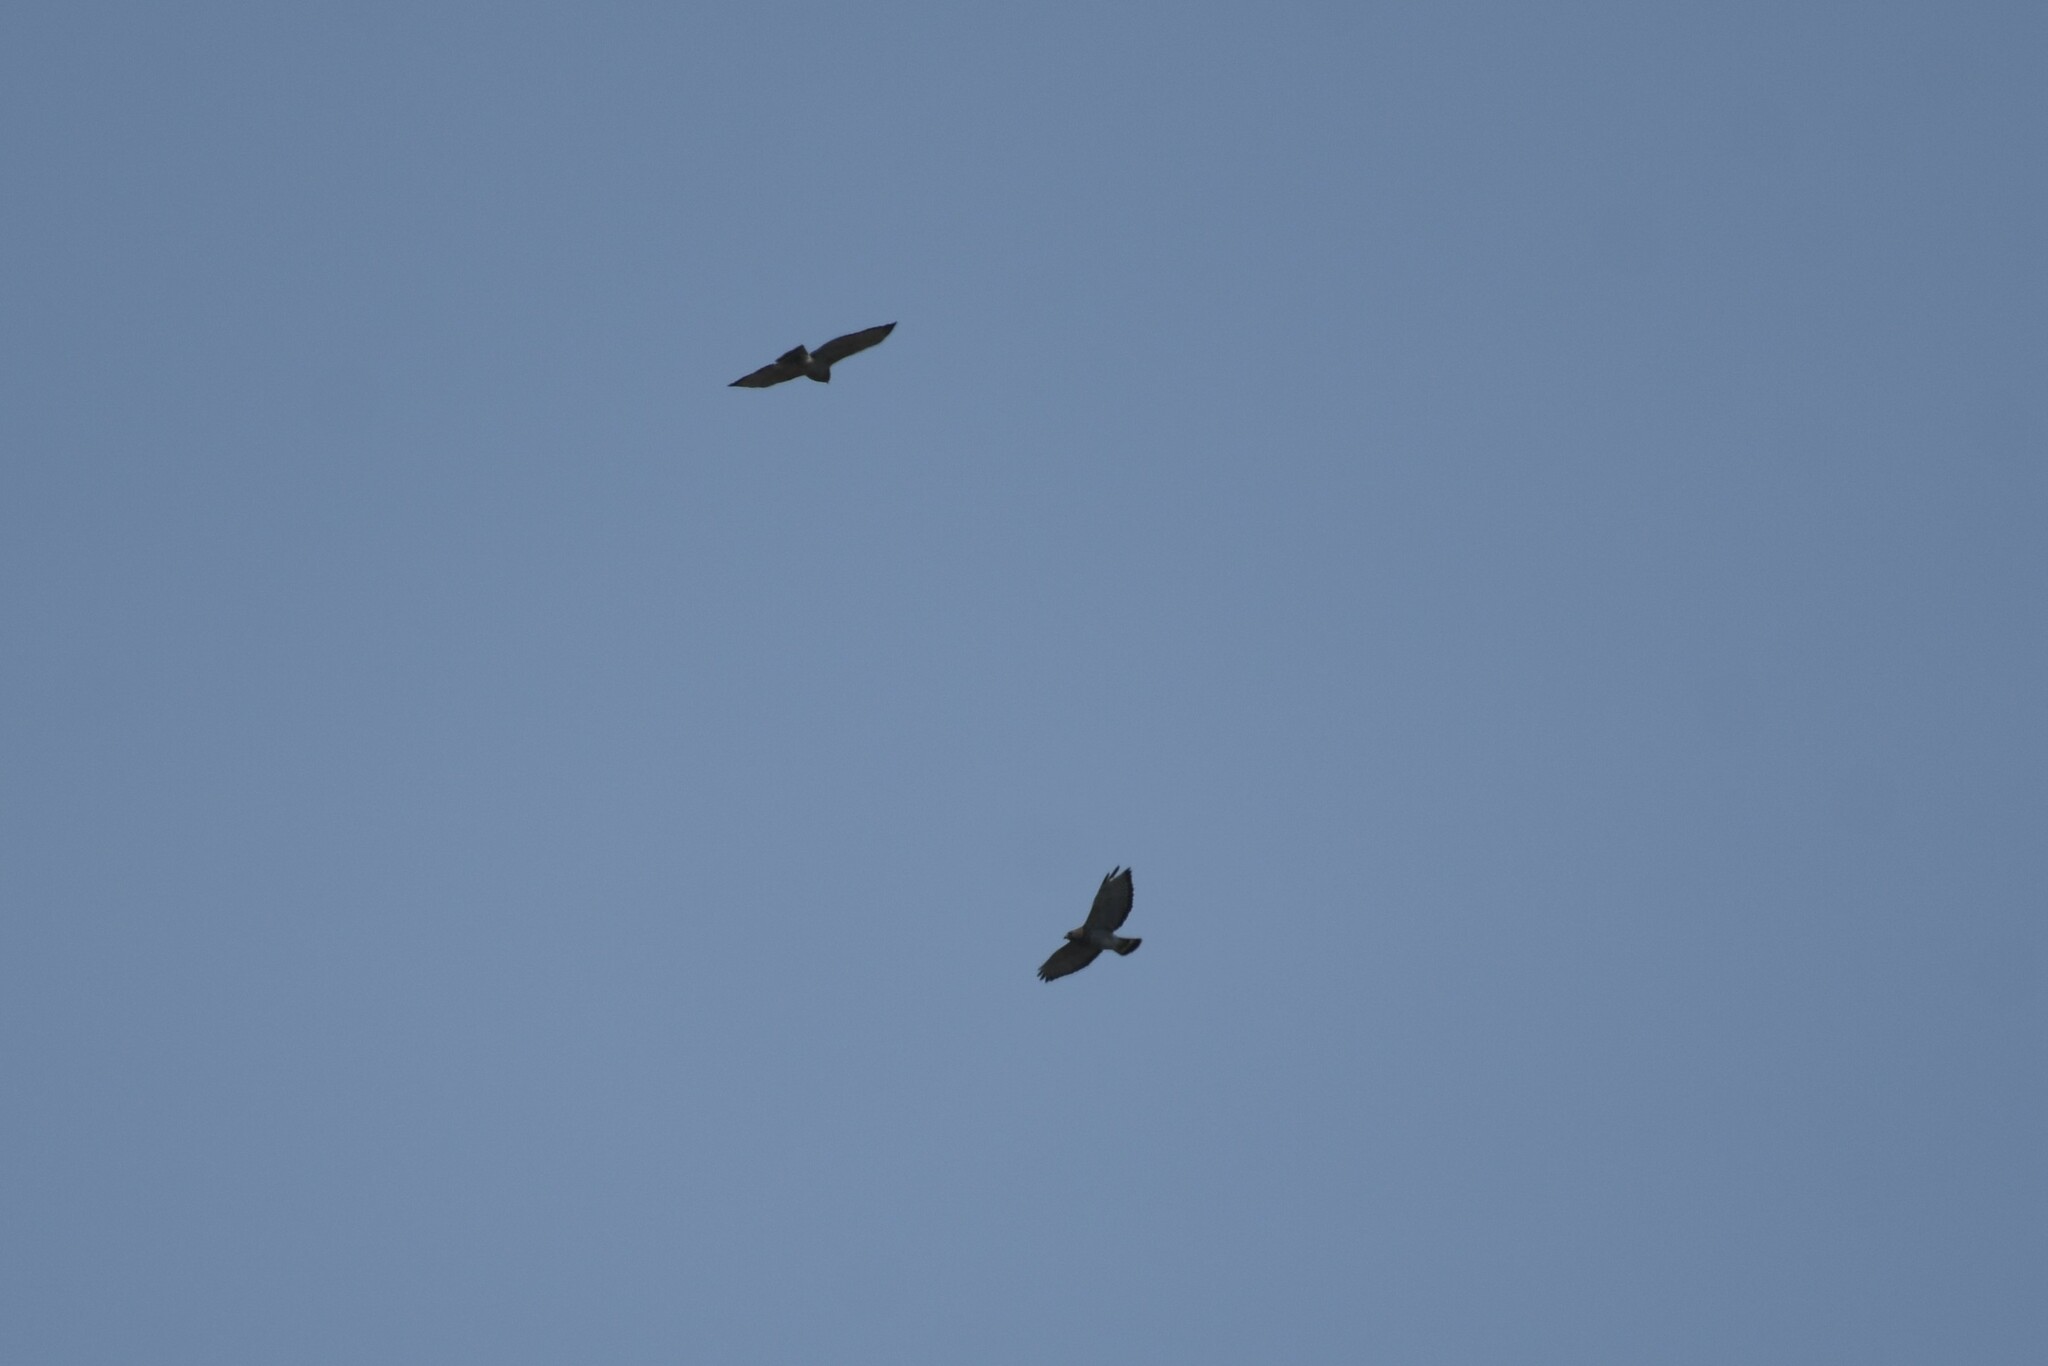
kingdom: Animalia
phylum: Chordata
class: Aves
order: Accipitriformes
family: Accipitridae
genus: Buteo
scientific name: Buteo platypterus
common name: Broad-winged hawk
